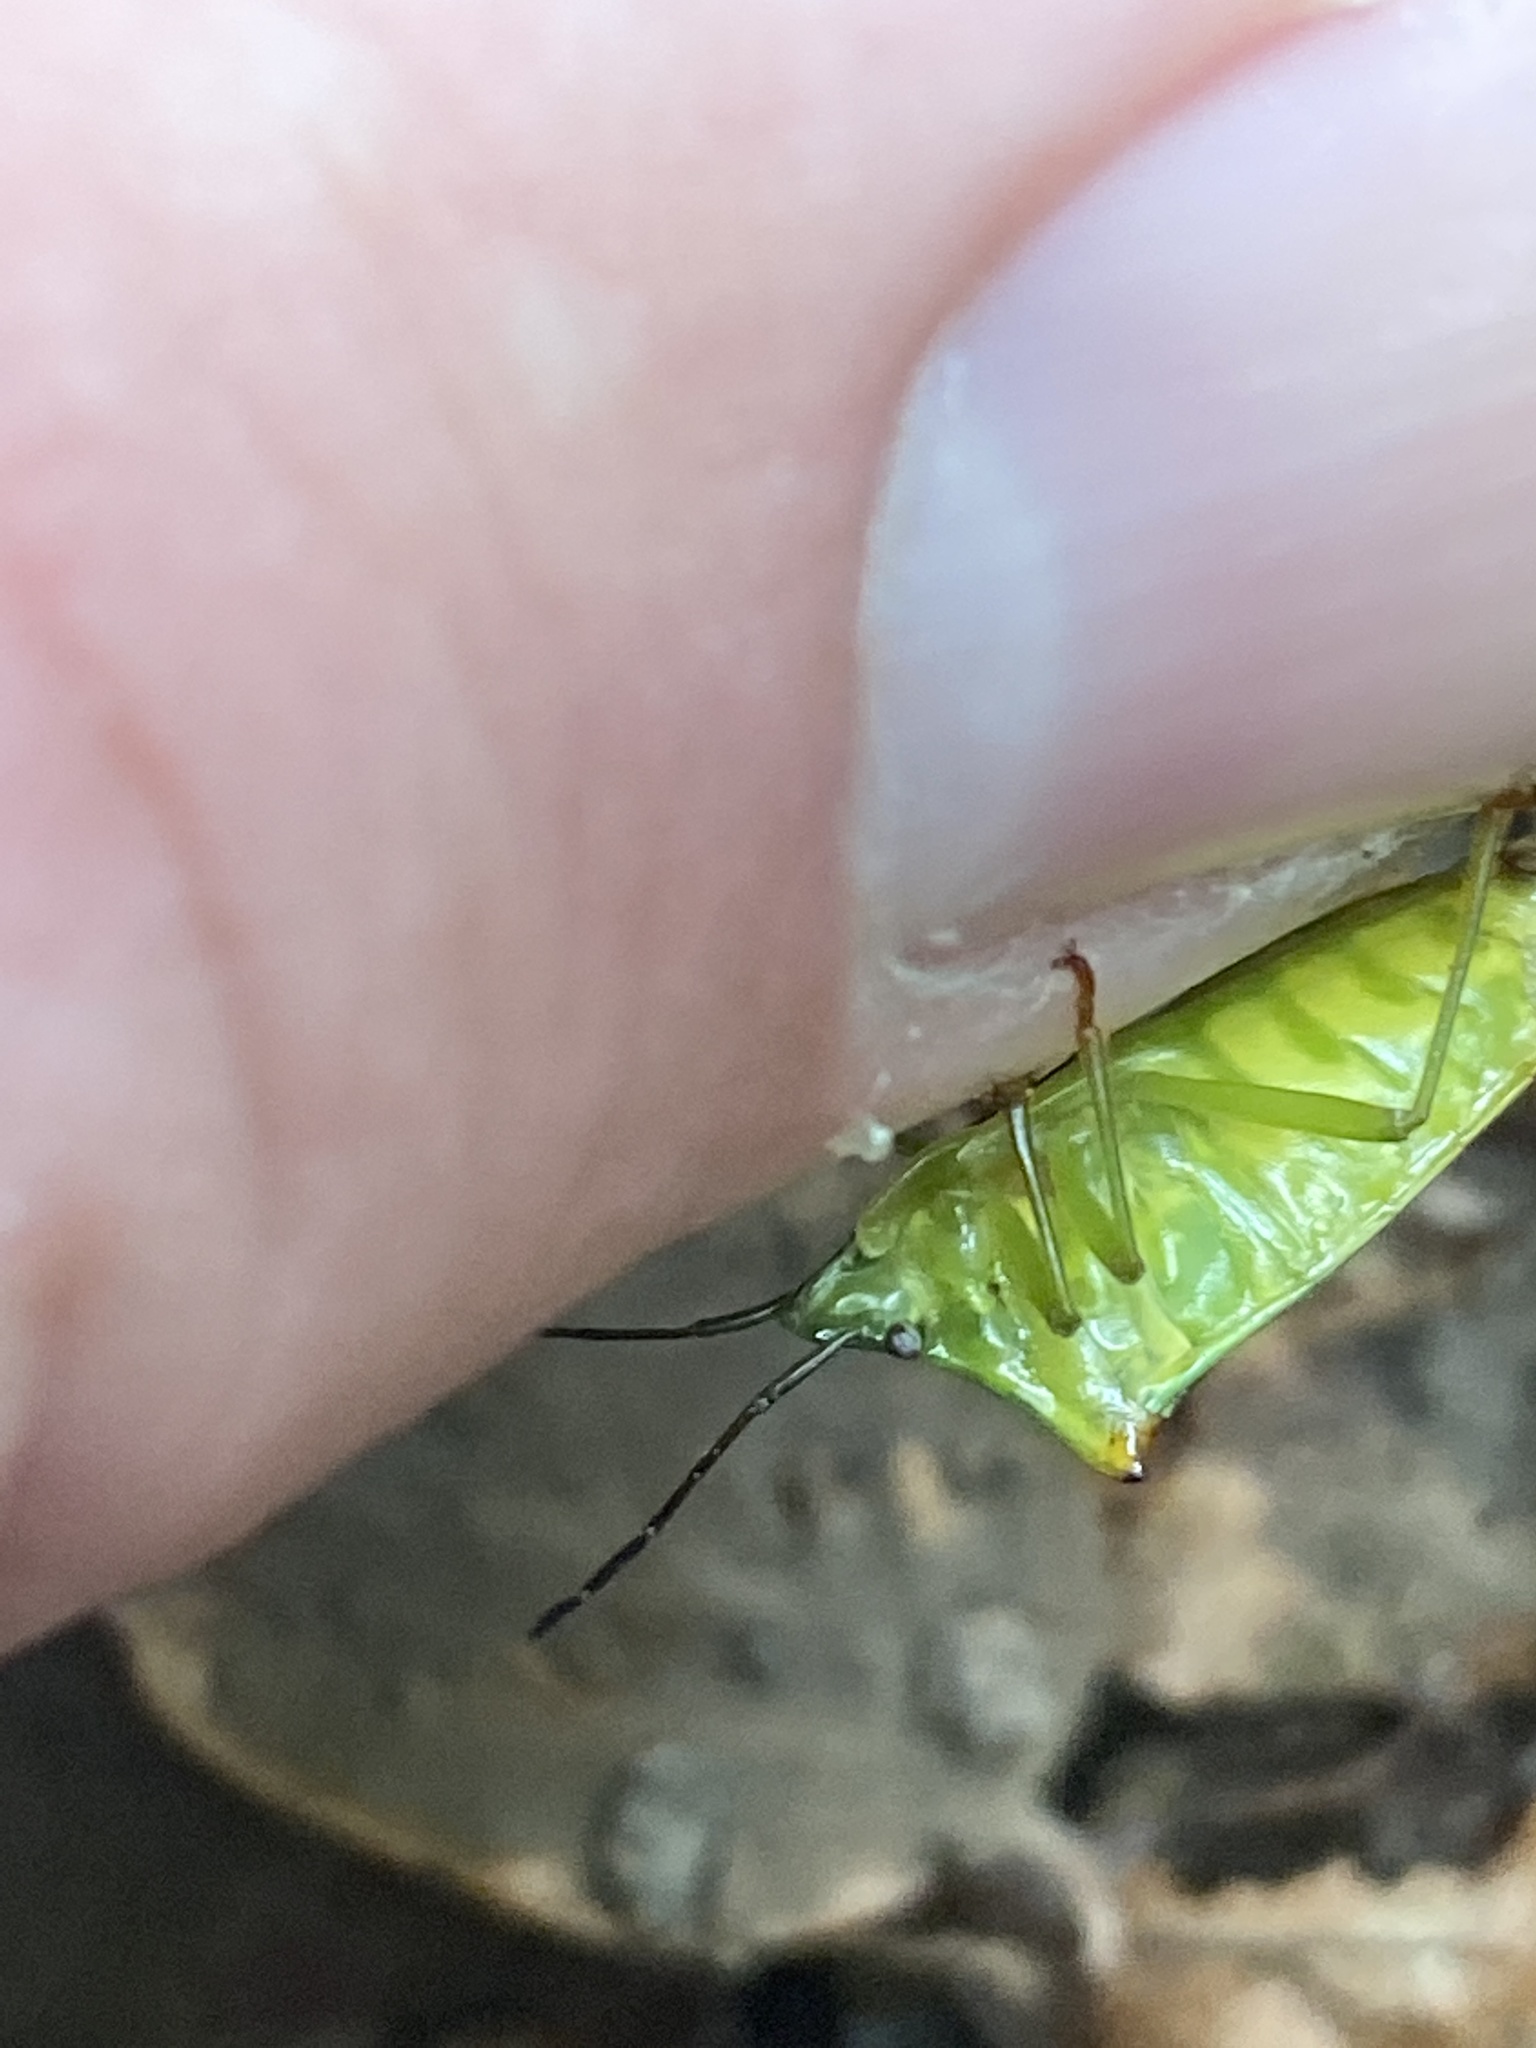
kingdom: Animalia
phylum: Arthropoda
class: Insecta
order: Hemiptera
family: Acanthosomatidae
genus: Acanthosoma
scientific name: Acanthosoma haemorrhoidale
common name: Hawthorn shieldbug
